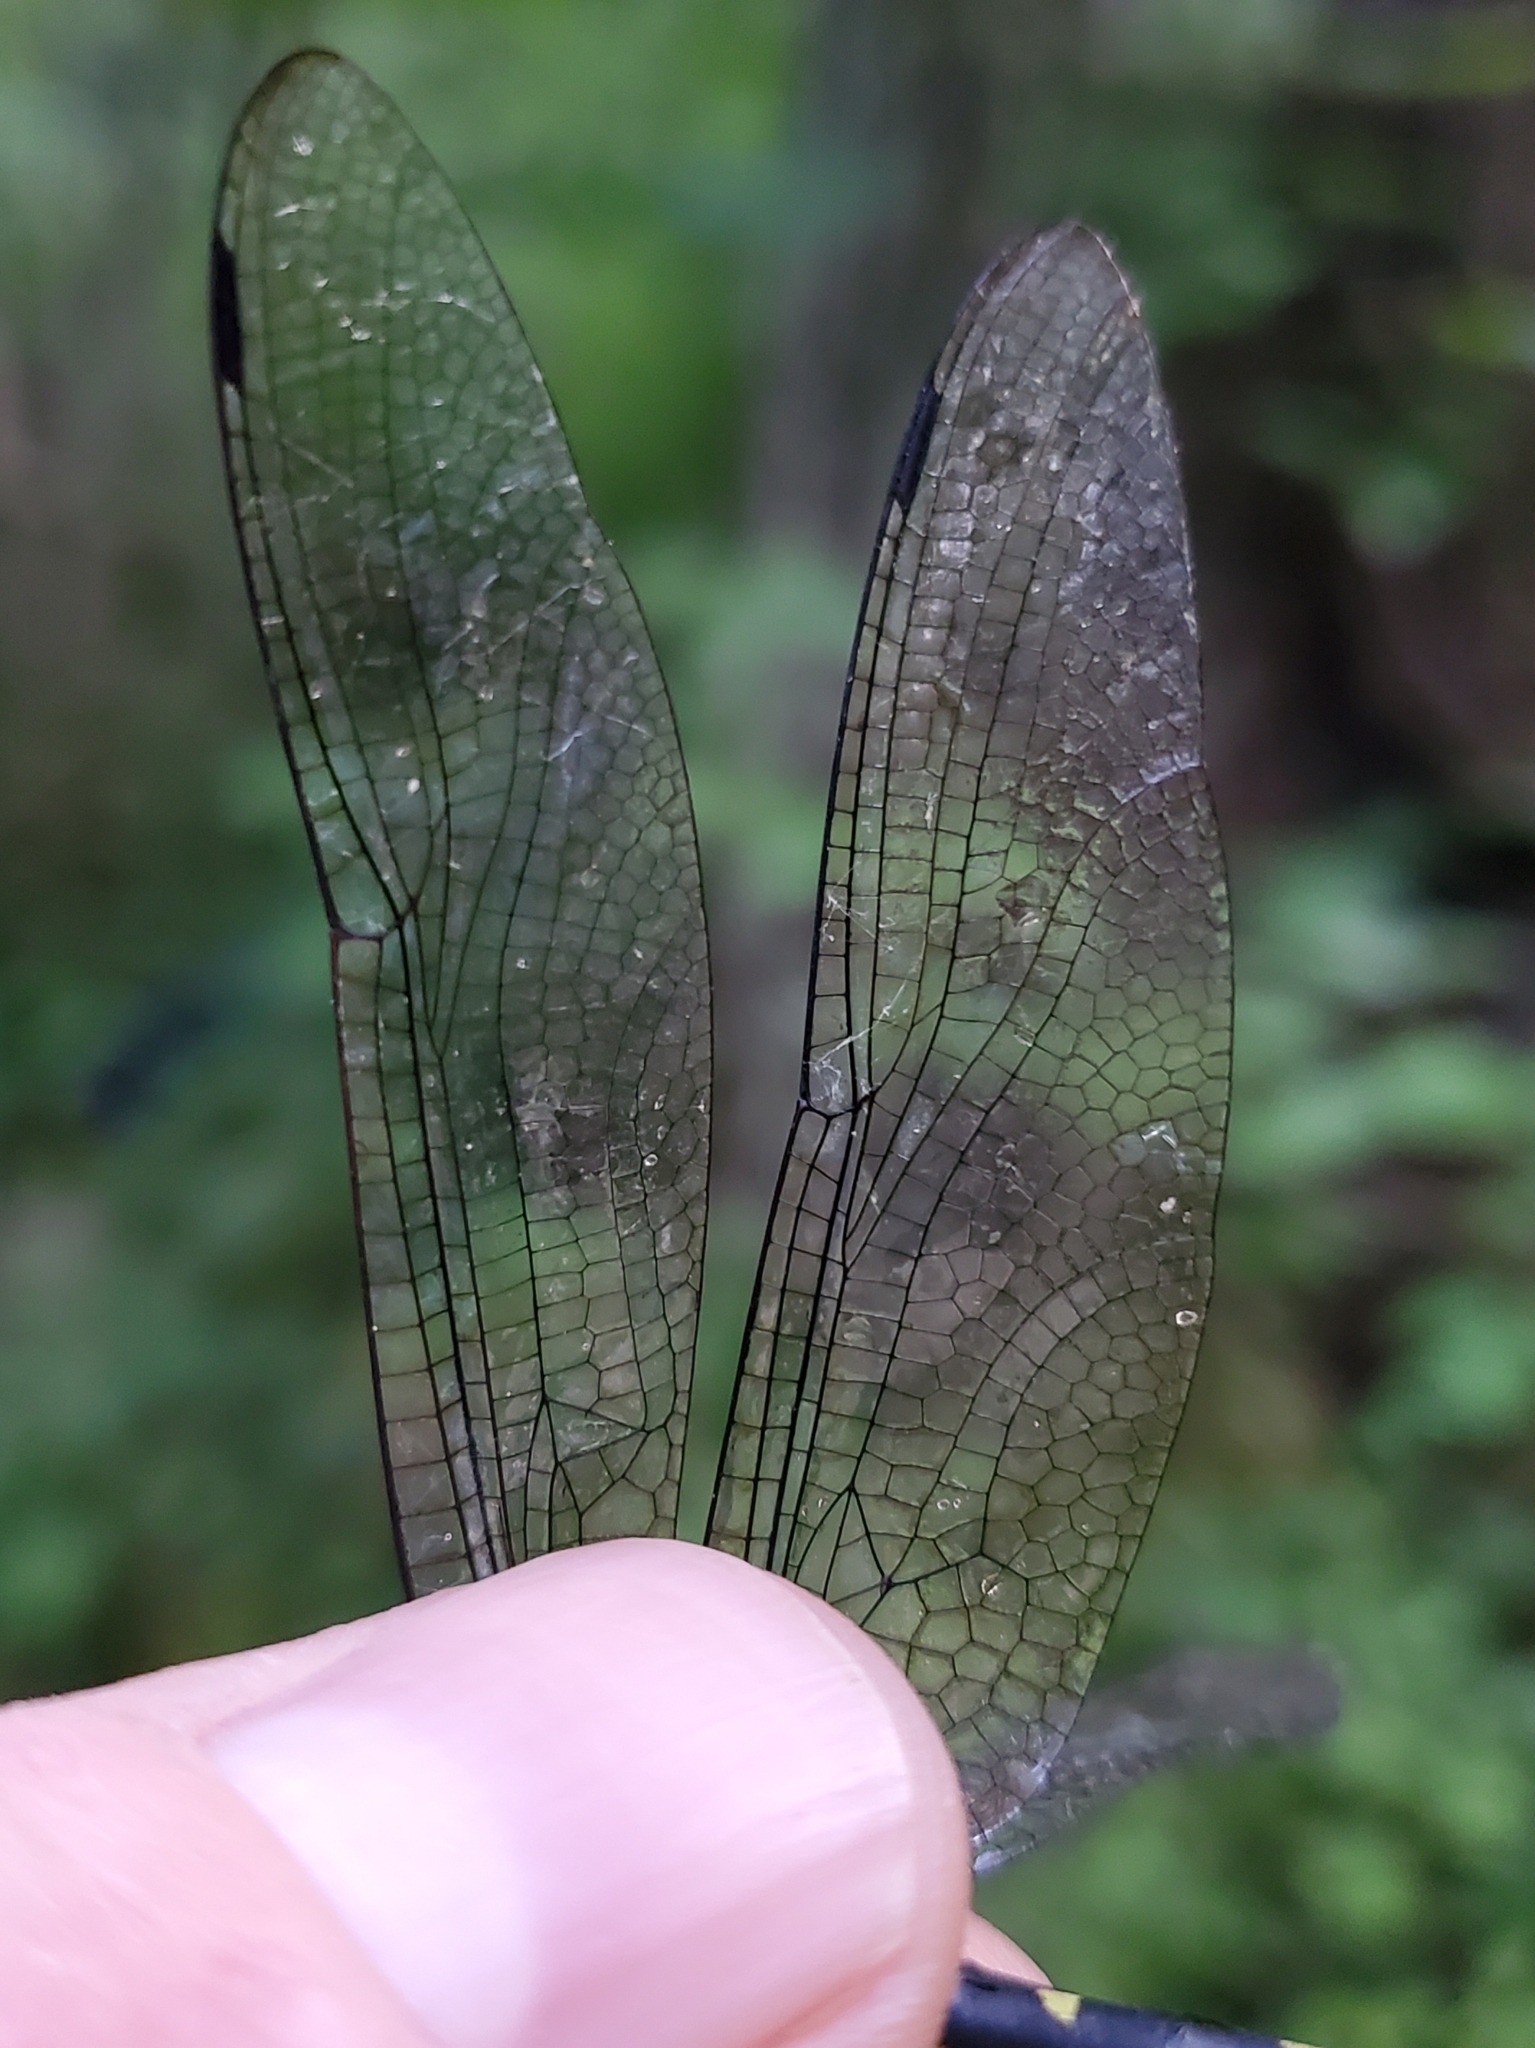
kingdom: Animalia
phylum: Arthropoda
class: Insecta
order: Odonata
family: Macromiidae
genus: Macromia
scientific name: Macromia illinoiensis
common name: Swift river cruiser
